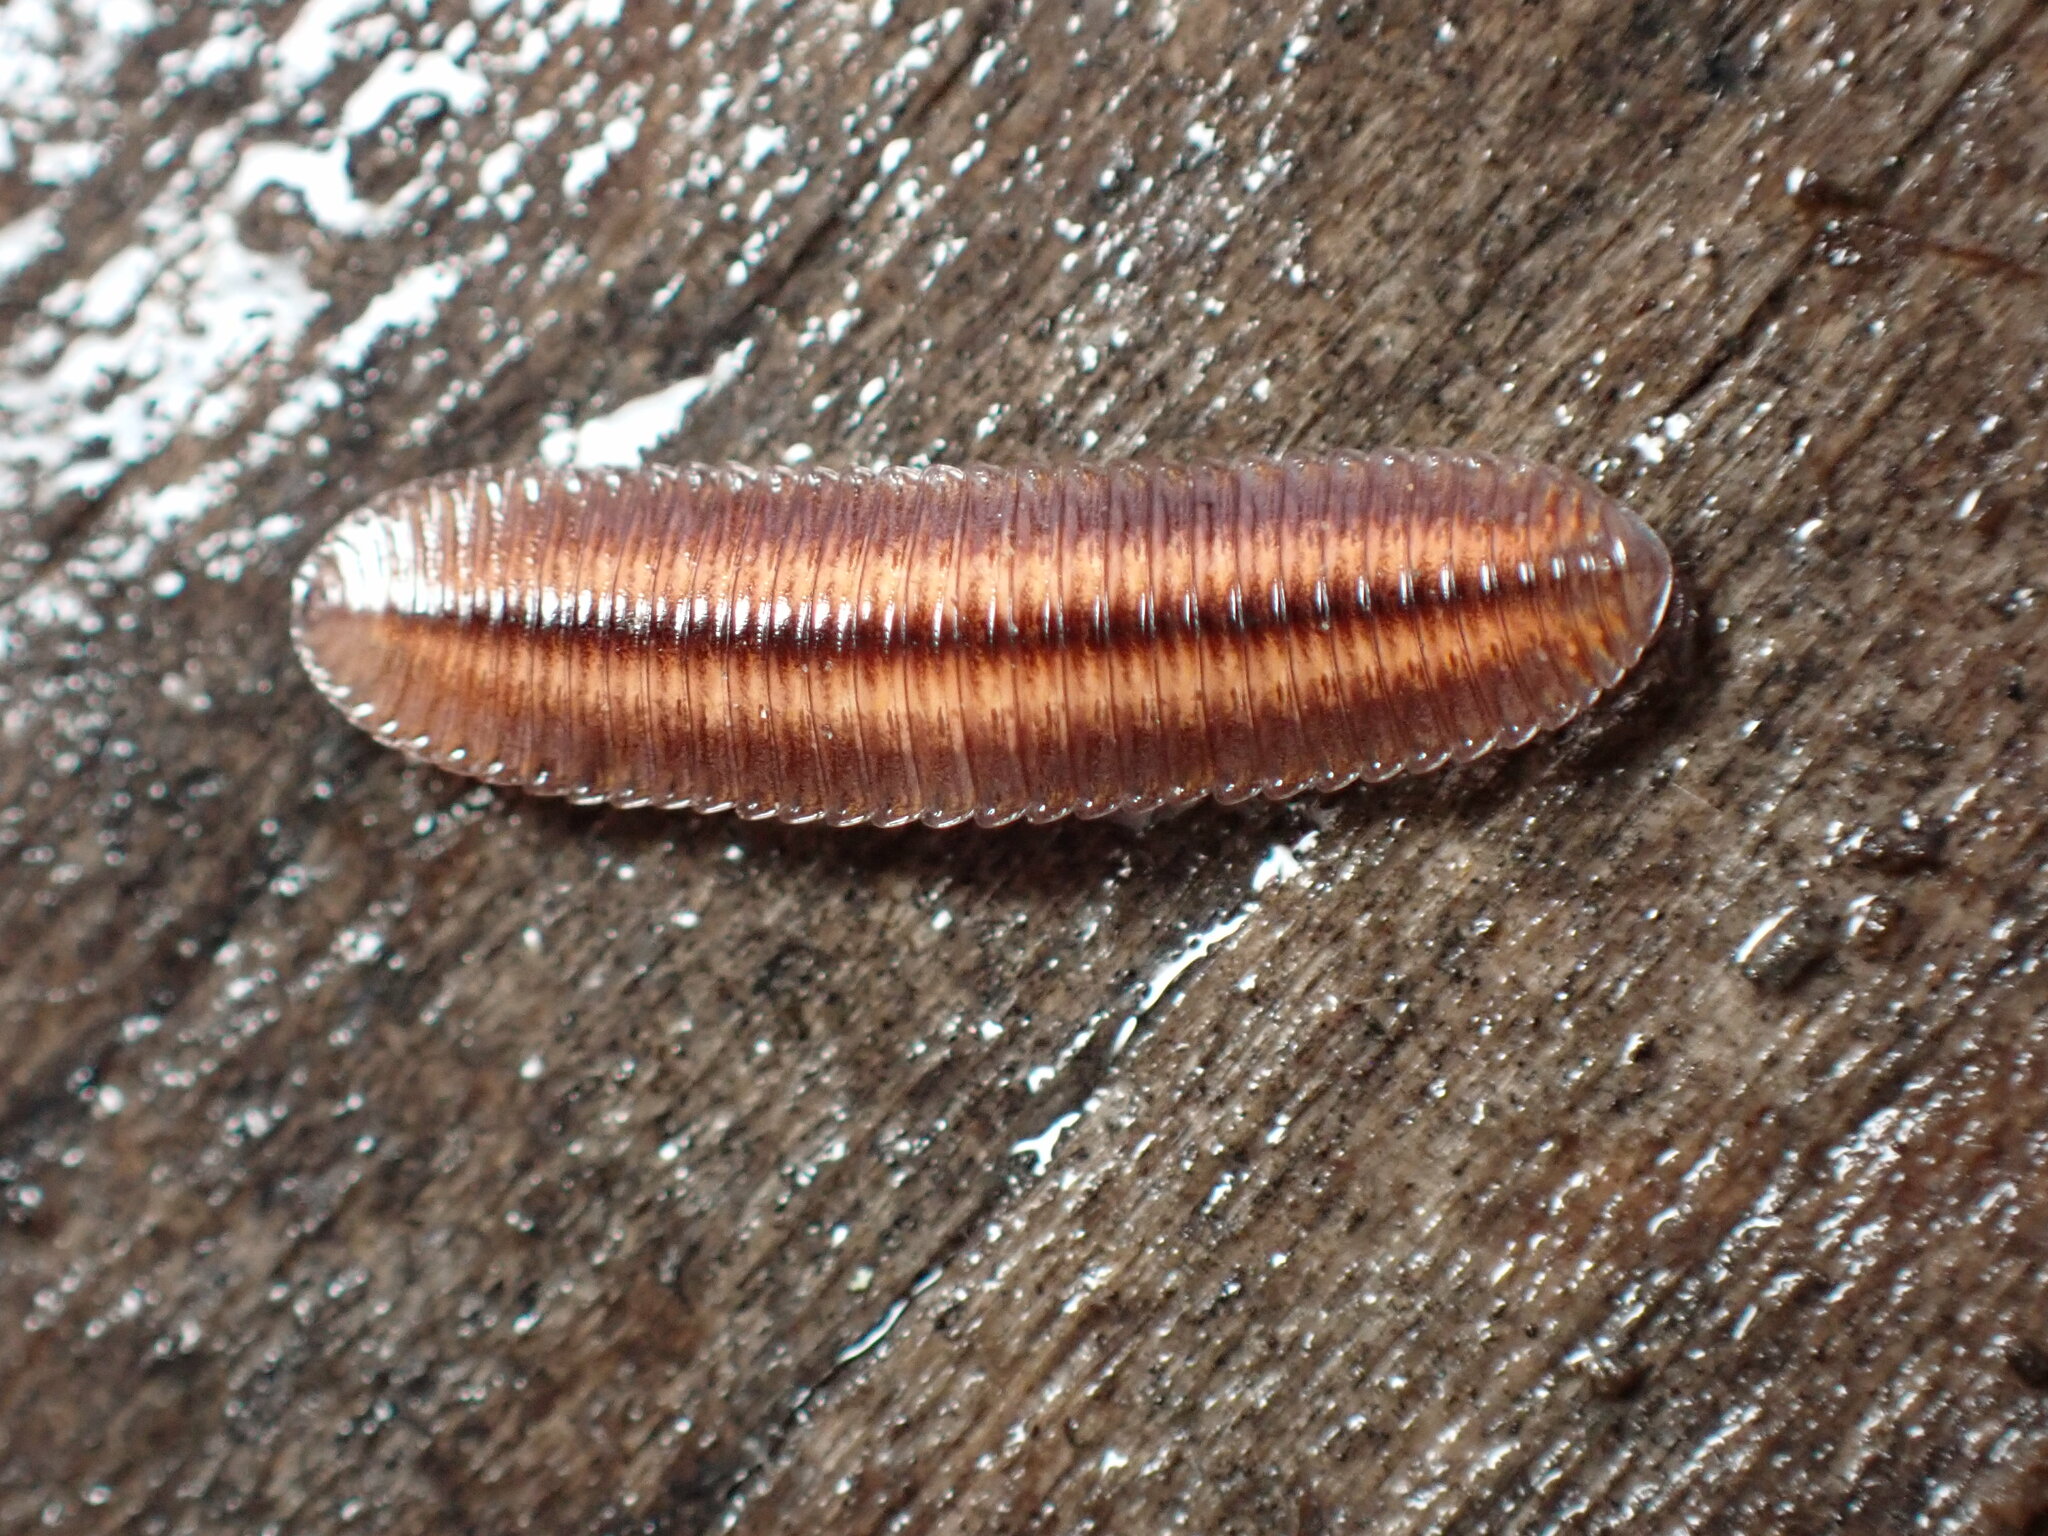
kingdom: Animalia
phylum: Arthropoda
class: Diplopoda
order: Polyzoniida
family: Hirudisomatidae
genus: Octoglena
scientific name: Octoglena bivirgatum
